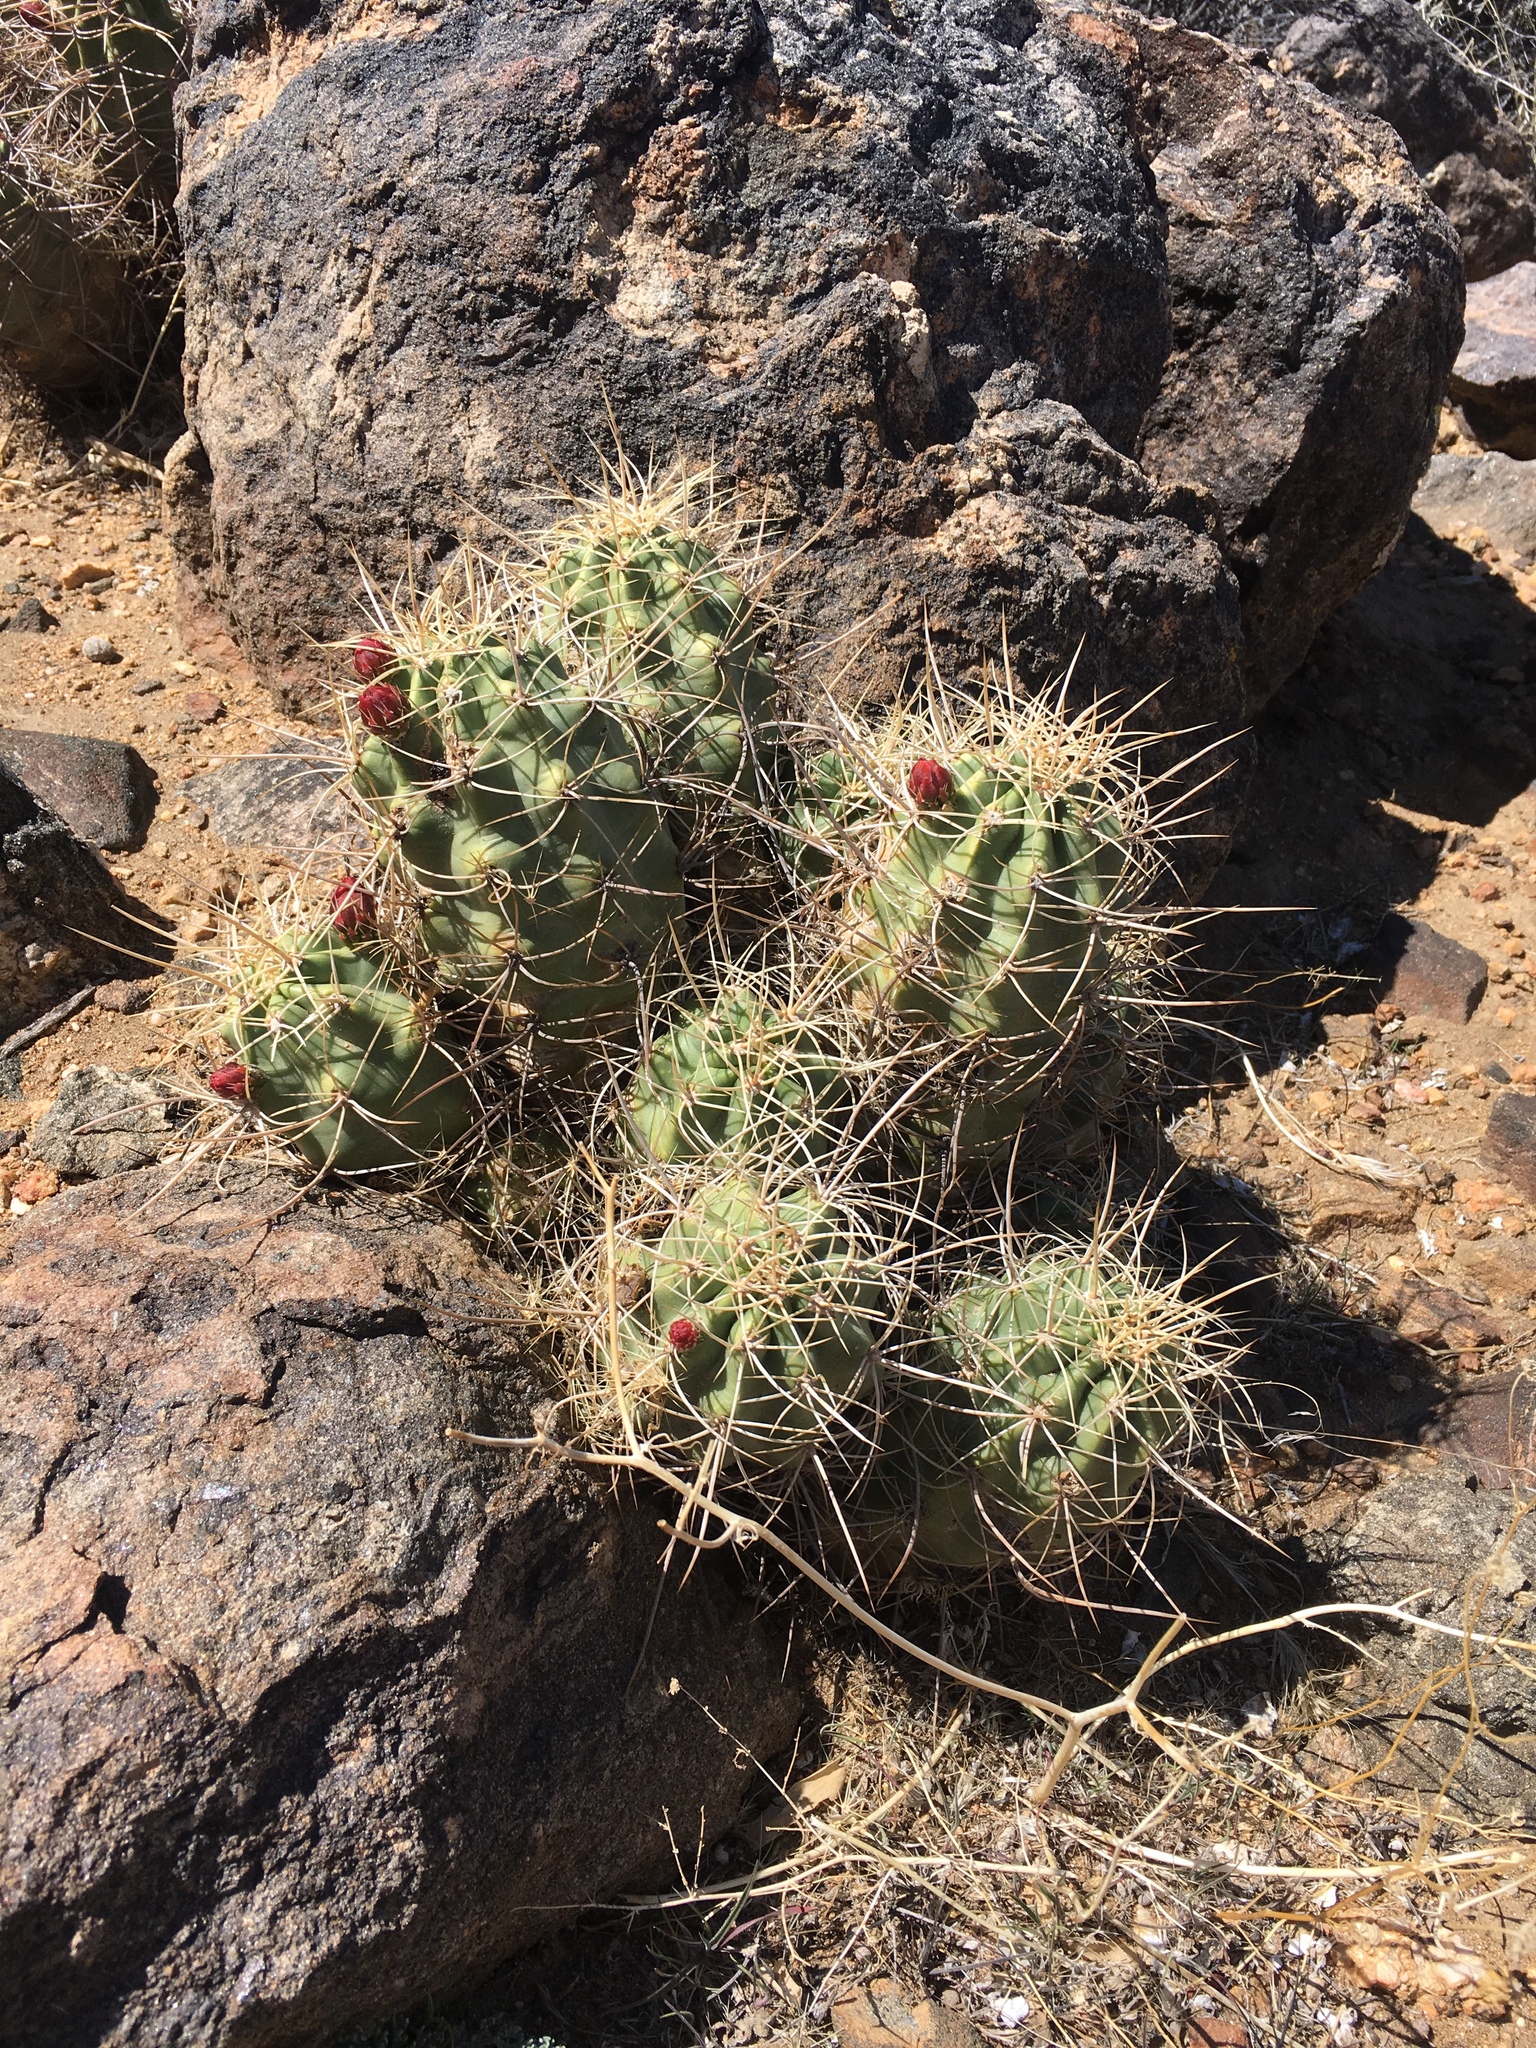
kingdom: Plantae
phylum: Tracheophyta
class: Magnoliopsida
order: Caryophyllales
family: Cactaceae
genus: Echinocereus
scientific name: Echinocereus triglochidiatus
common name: Claretcup hedgehog
